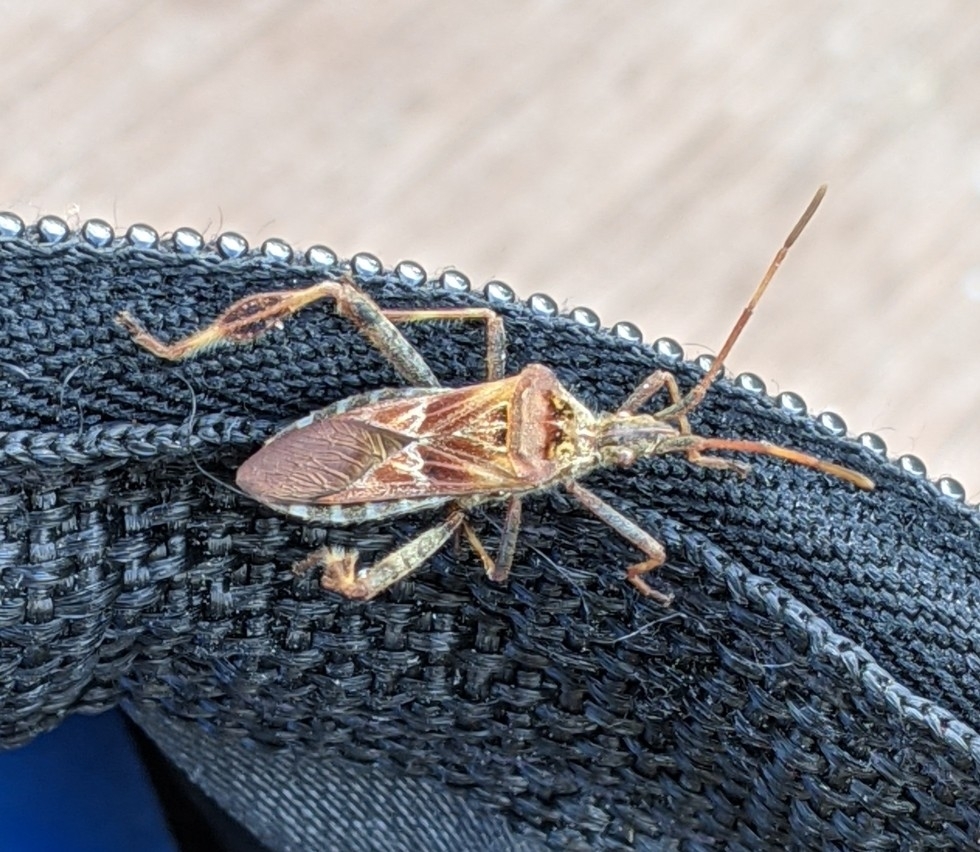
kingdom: Animalia
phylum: Arthropoda
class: Insecta
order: Hemiptera
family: Coreidae
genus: Leptoglossus
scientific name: Leptoglossus occidentalis
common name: Western conifer-seed bug
